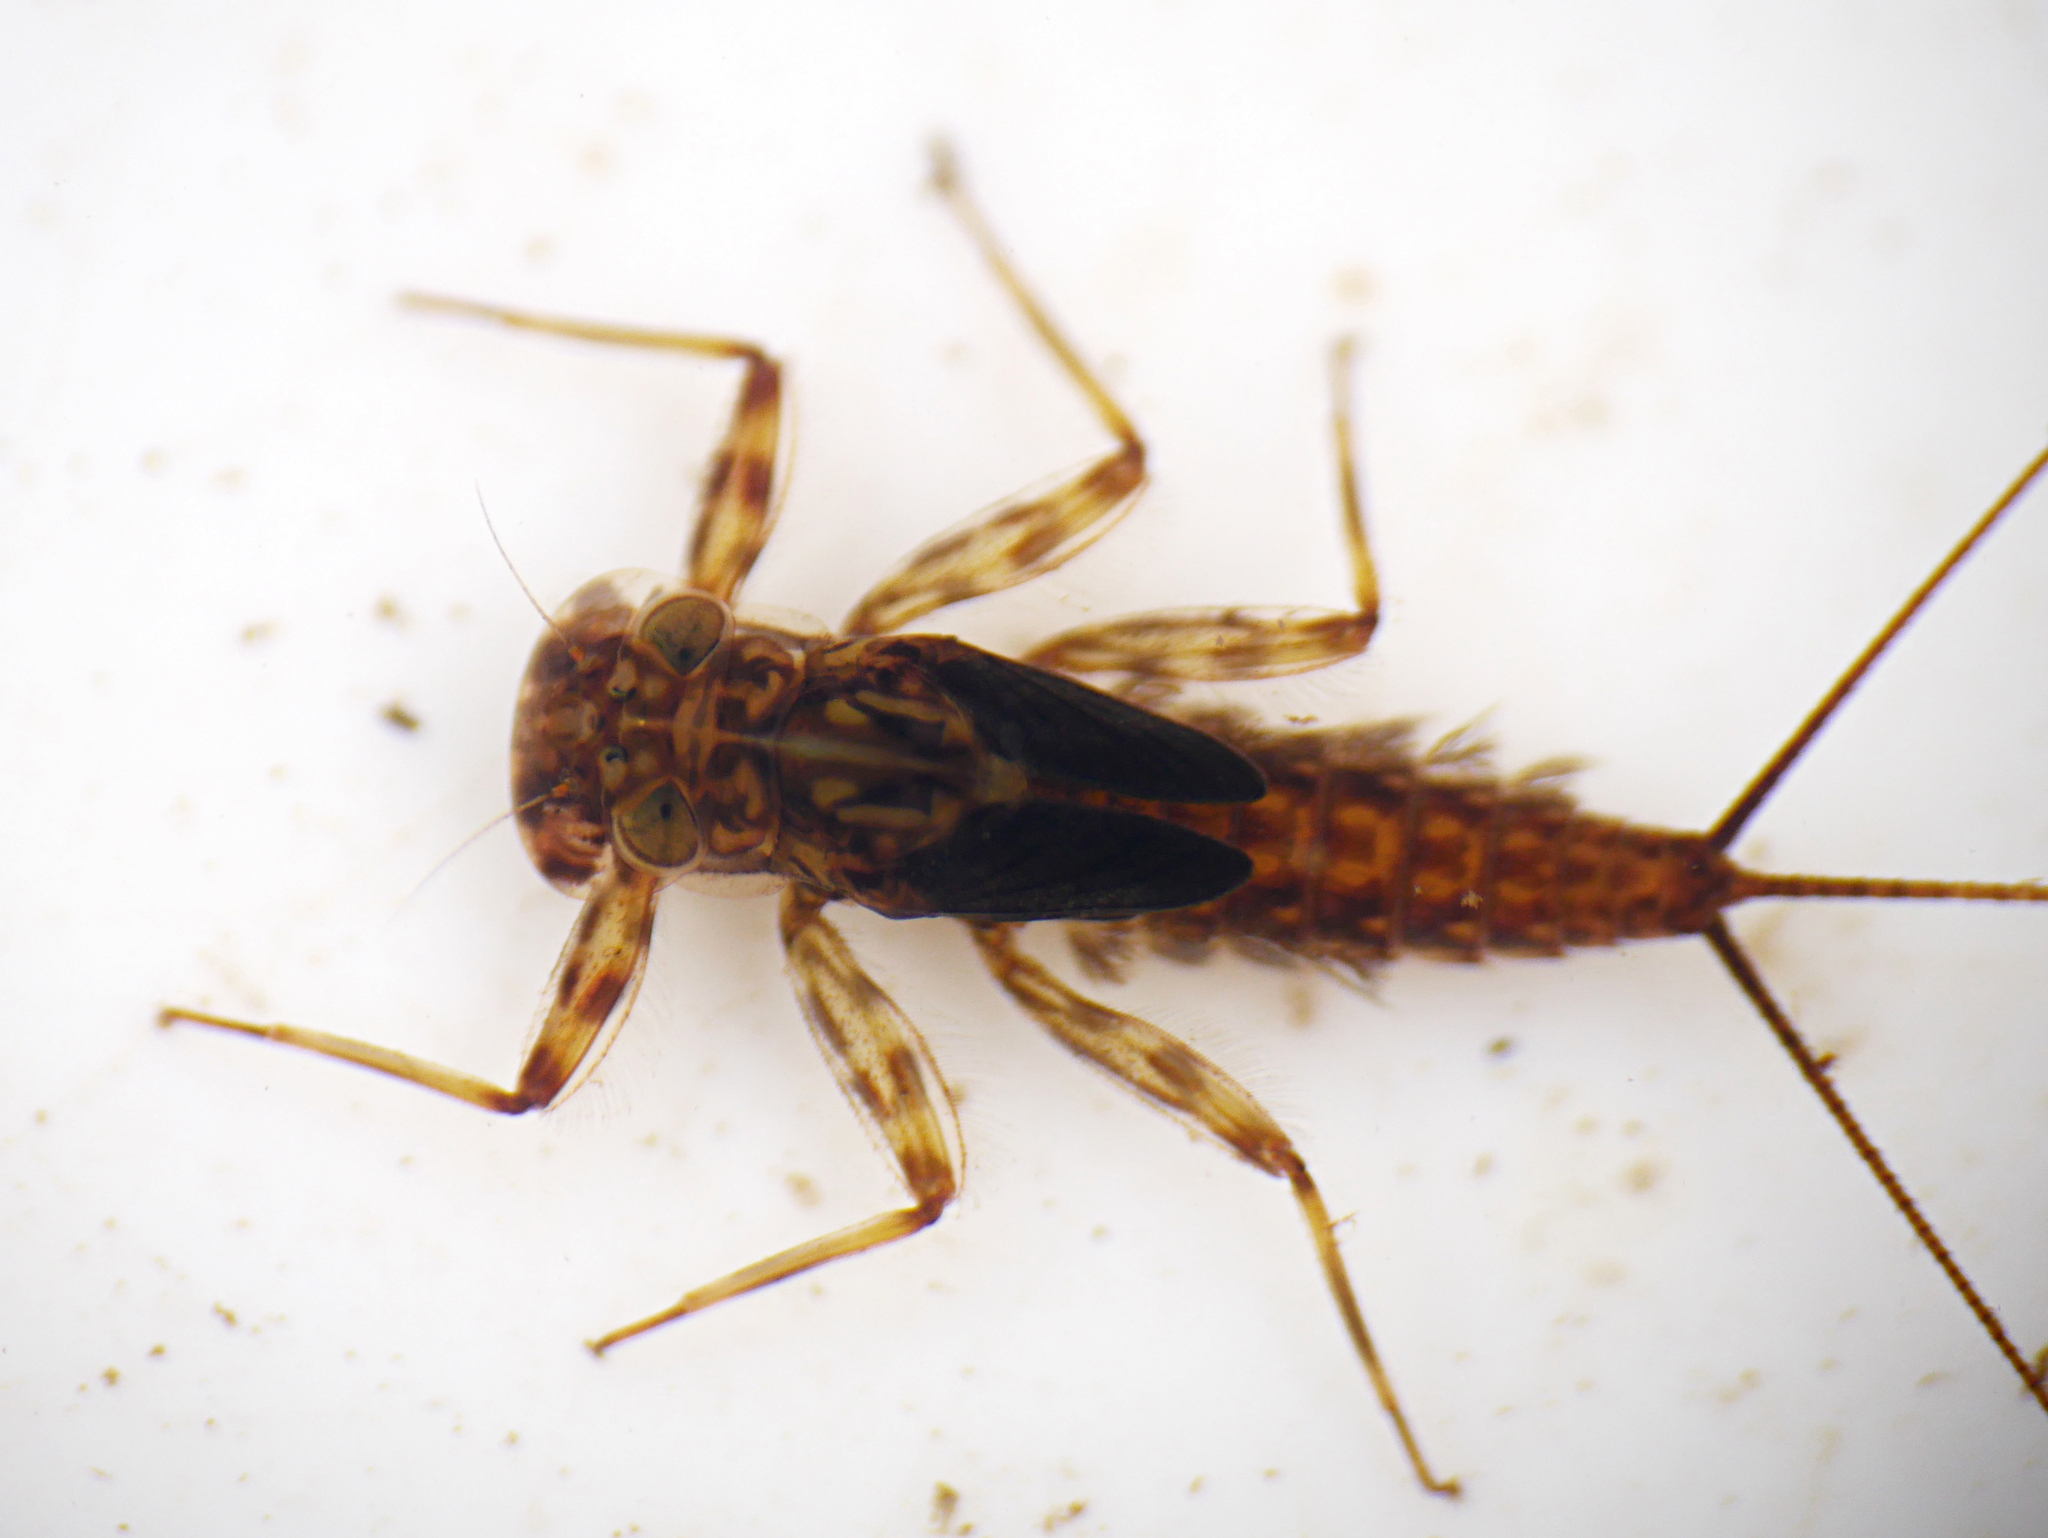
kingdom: Animalia
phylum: Arthropoda
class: Insecta
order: Ephemeroptera
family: Heptageniidae
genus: Electrogena
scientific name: Electrogena affinis
